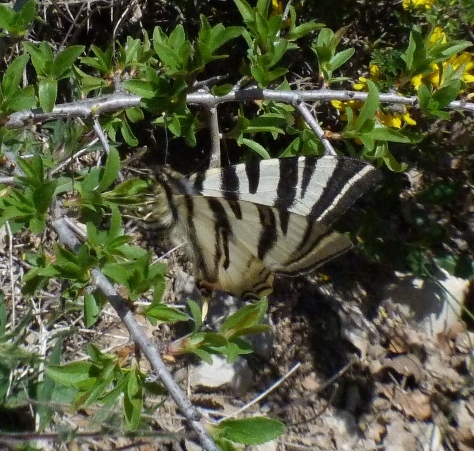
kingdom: Animalia
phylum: Arthropoda
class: Insecta
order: Lepidoptera
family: Papilionidae
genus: Iphiclides
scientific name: Iphiclides feisthamelii
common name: Iberian scarce swallowtail
